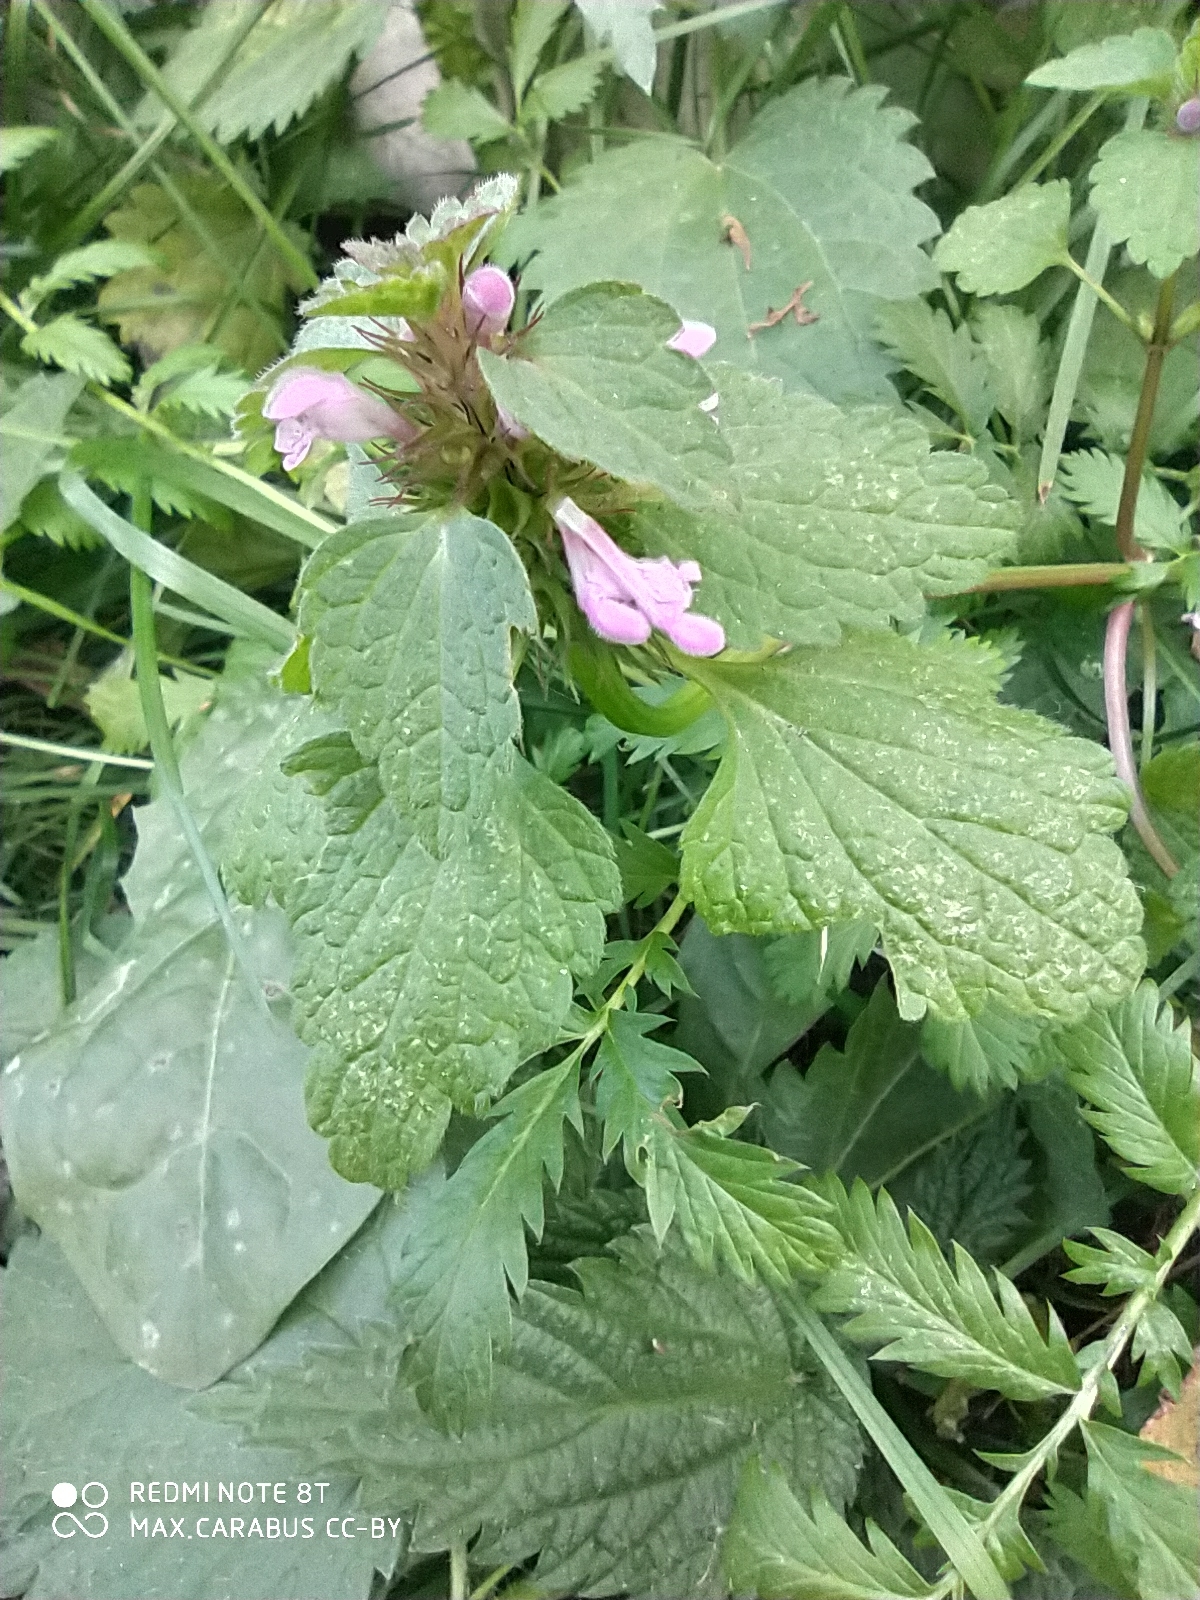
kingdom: Plantae
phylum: Tracheophyta
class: Magnoliopsida
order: Lamiales
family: Lamiaceae
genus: Lamium
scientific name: Lamium purpureum
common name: Red dead-nettle
